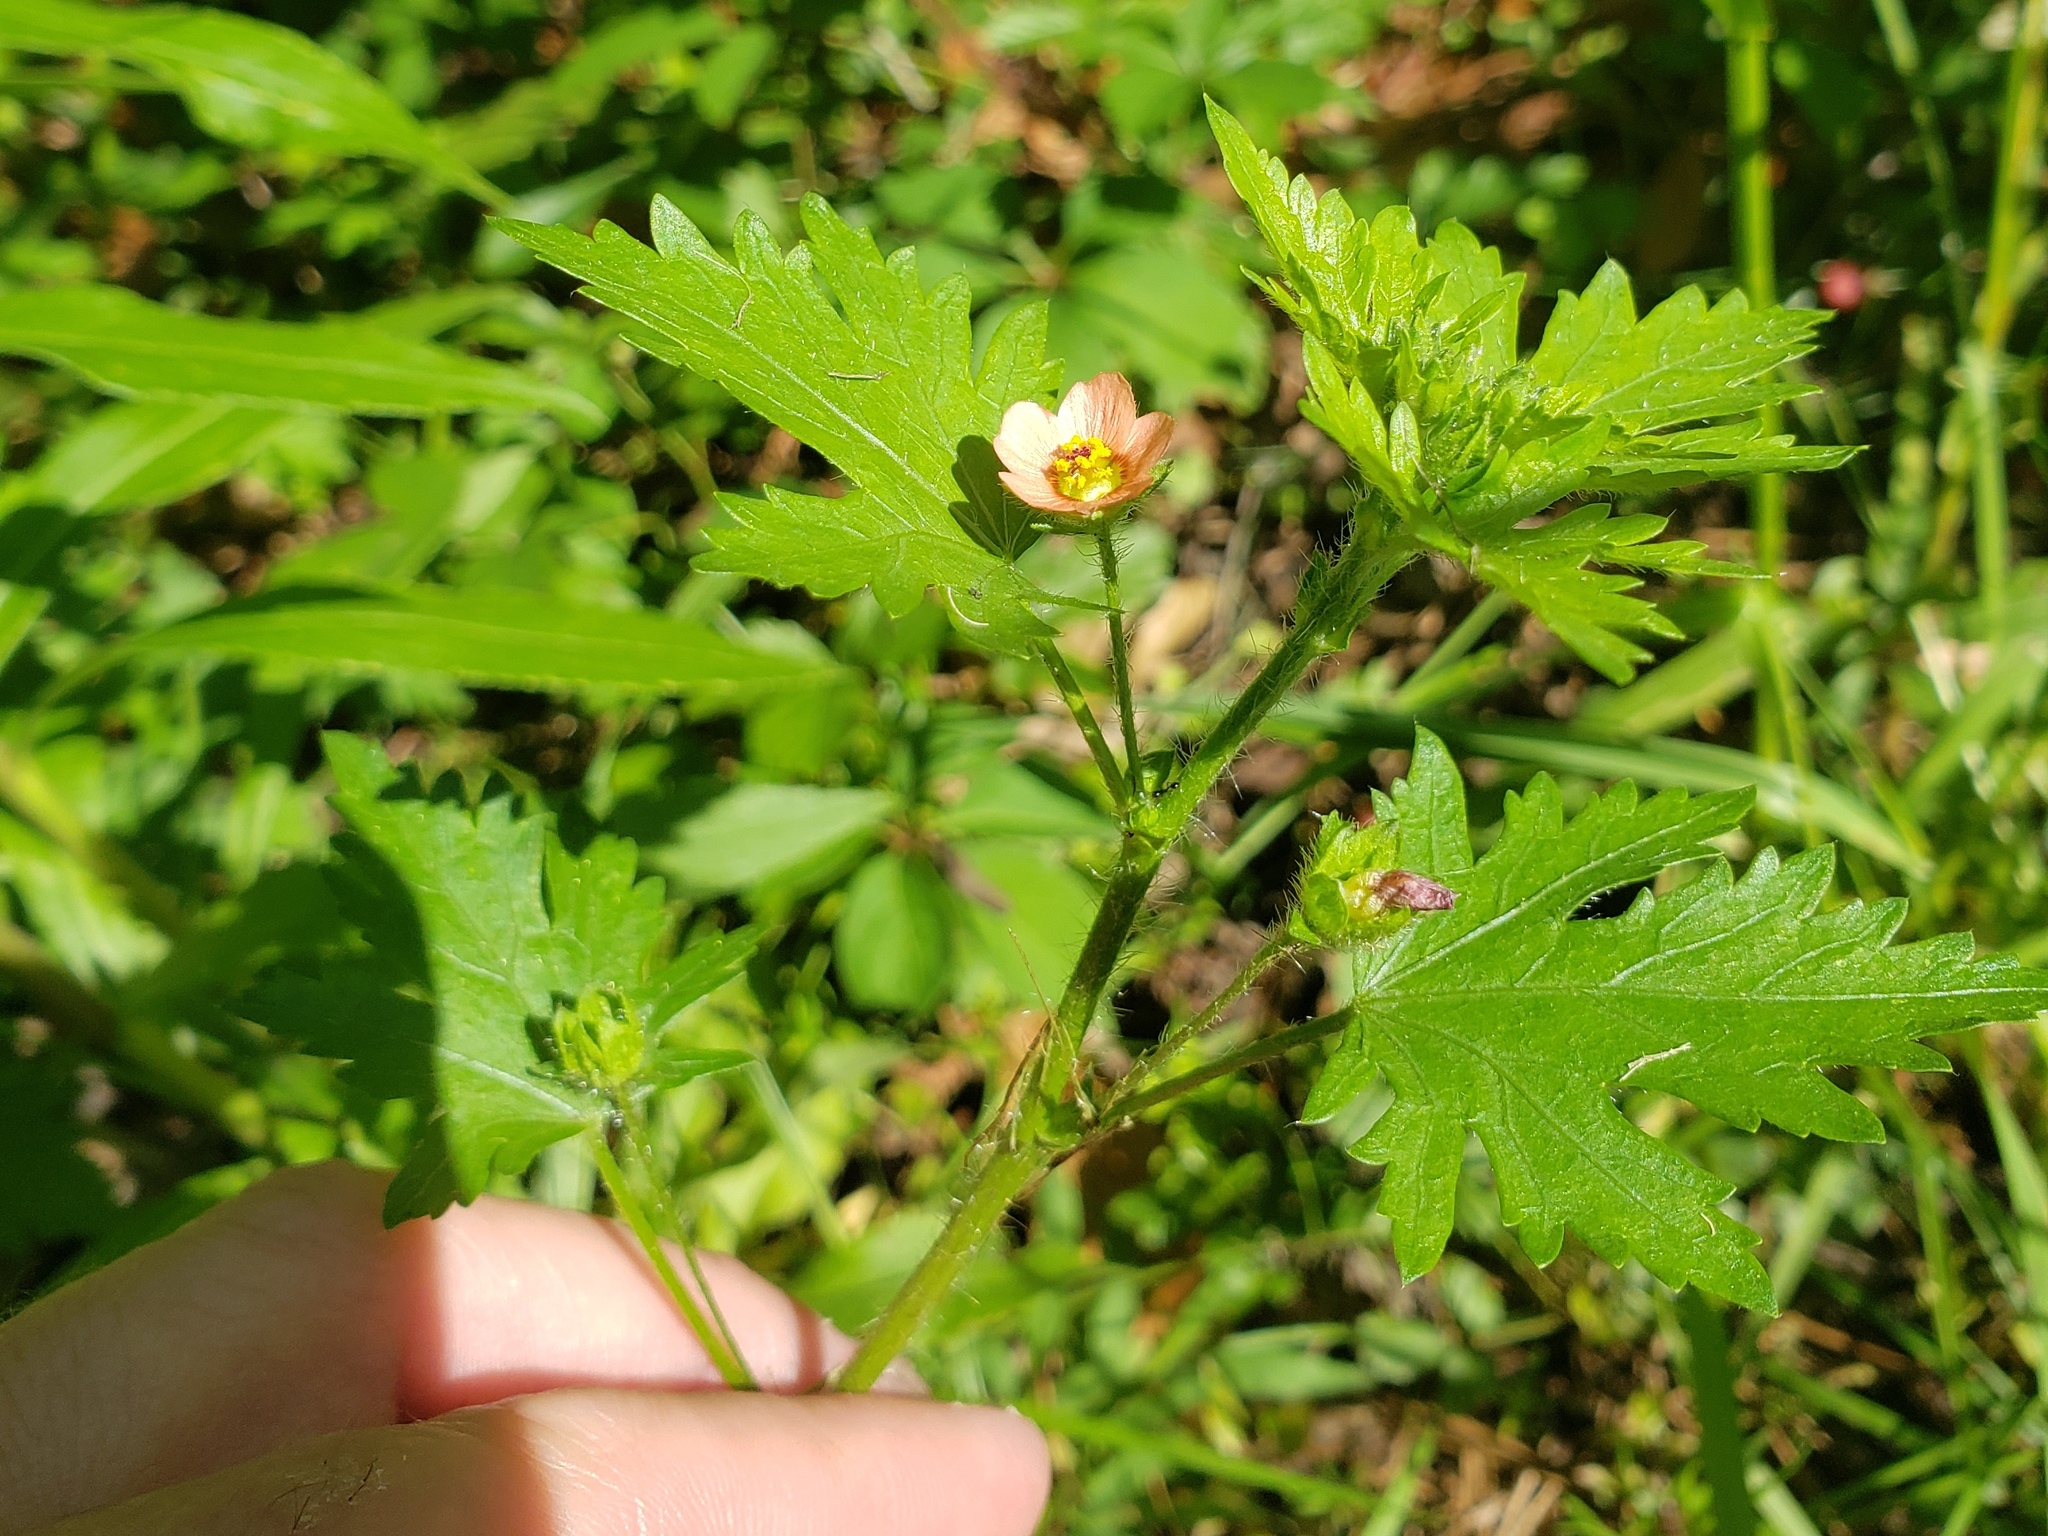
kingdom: Plantae
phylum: Tracheophyta
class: Magnoliopsida
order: Malvales
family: Malvaceae
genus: Modiola
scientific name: Modiola caroliniana
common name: Carolina bristlemallow
